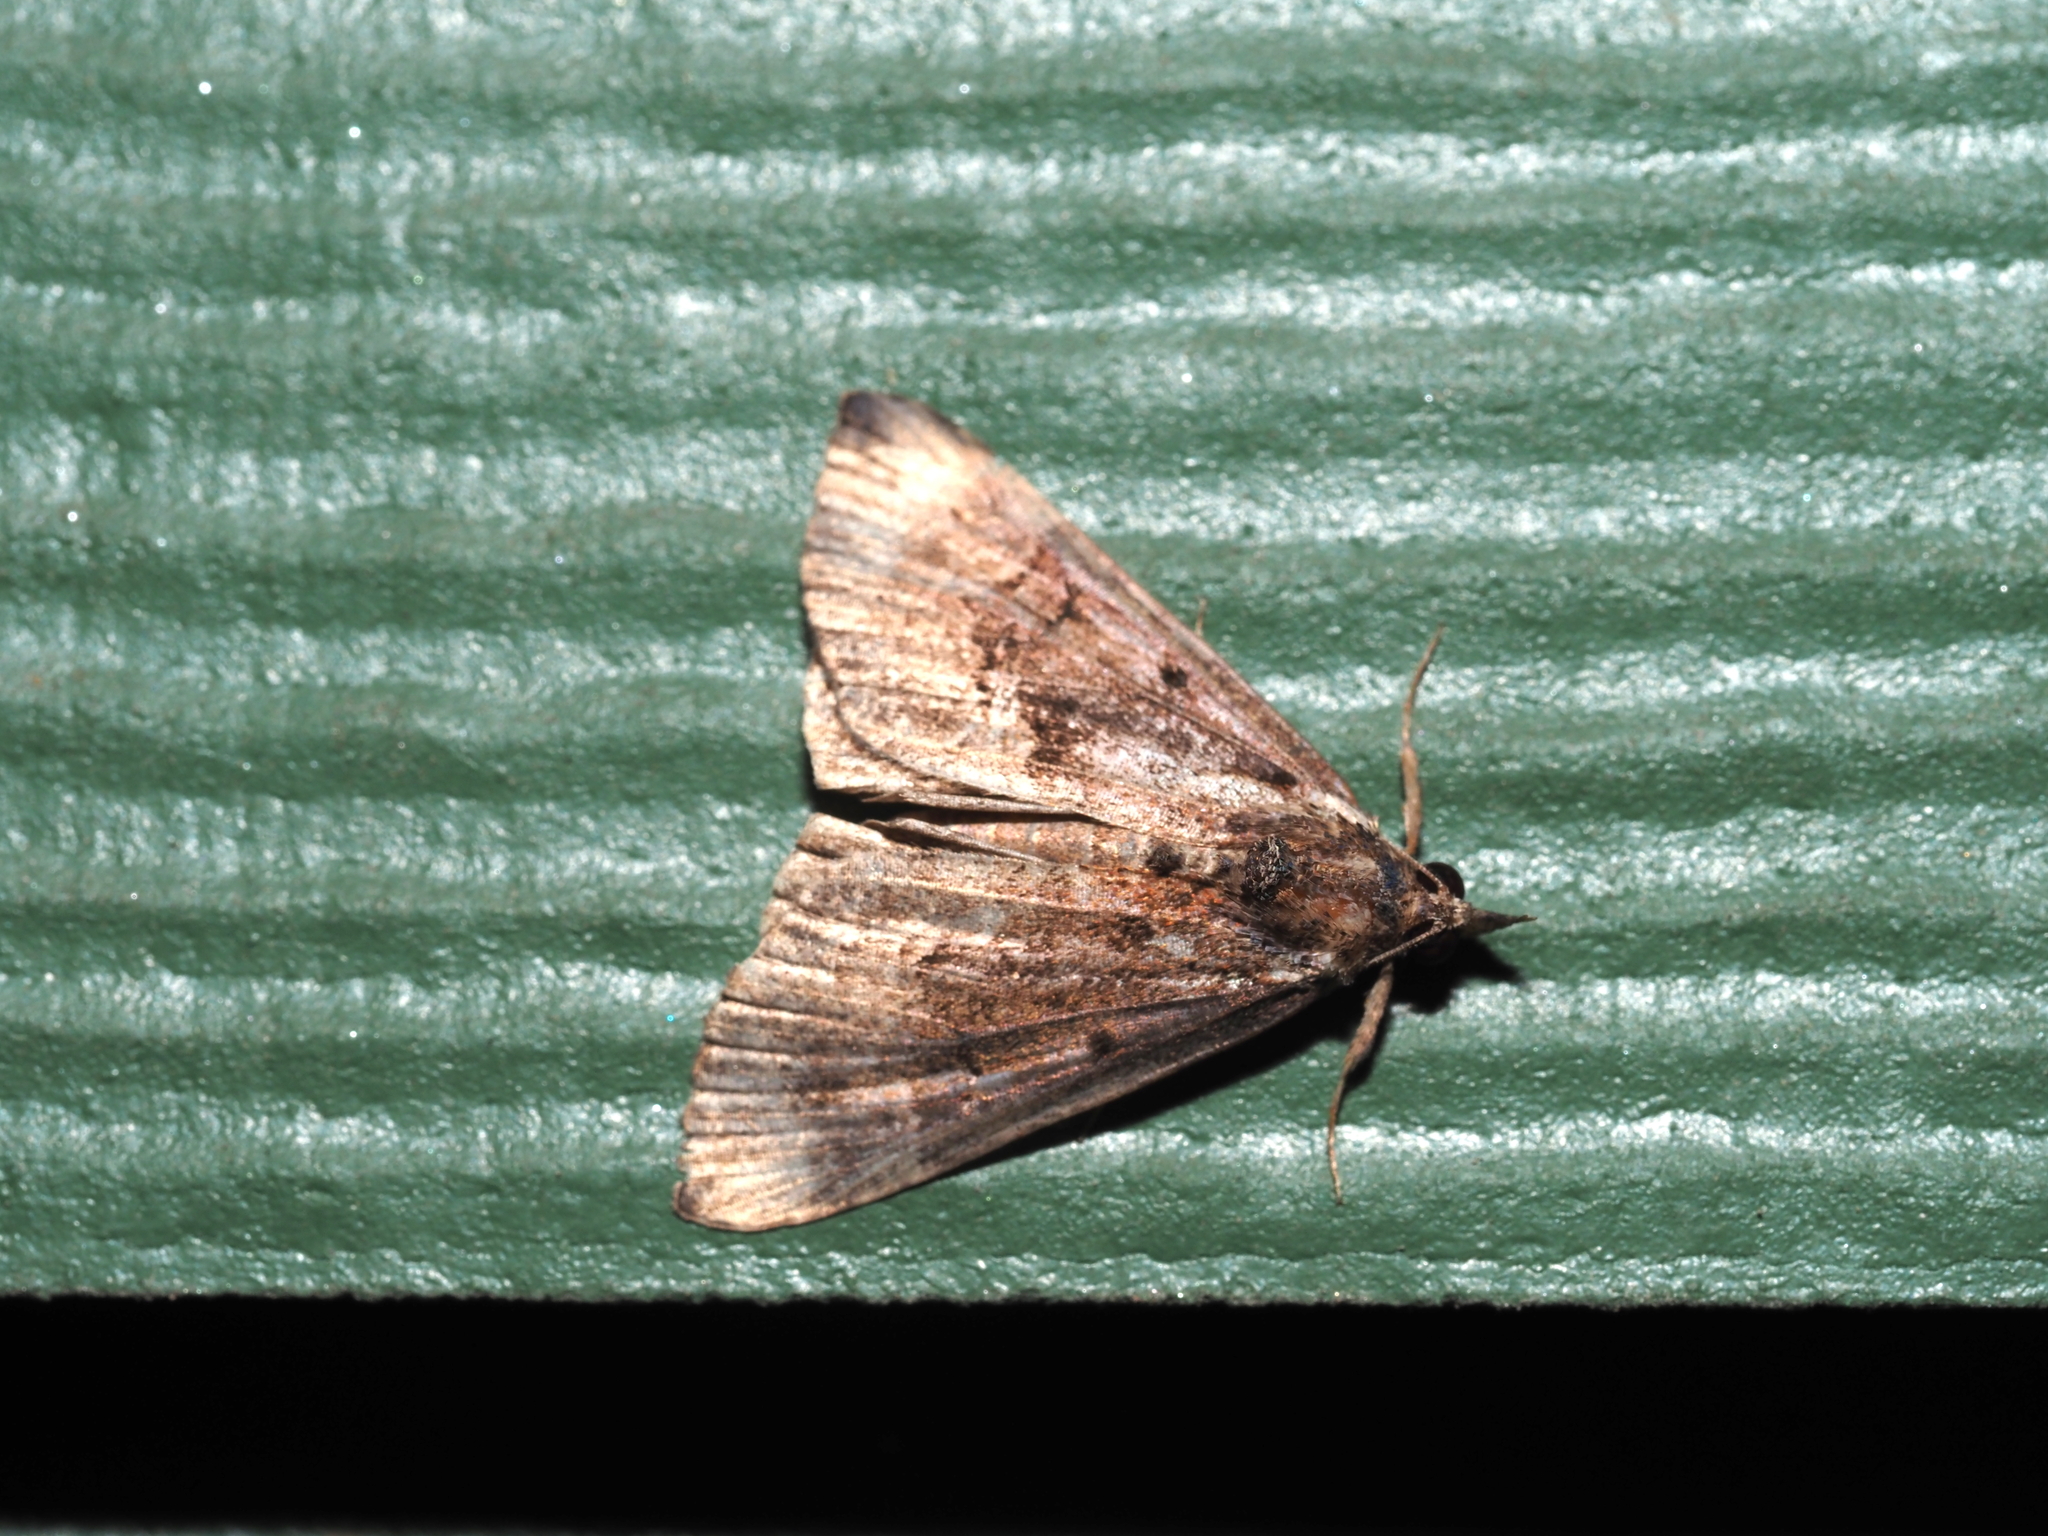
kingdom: Animalia
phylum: Arthropoda
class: Insecta
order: Lepidoptera
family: Erebidae
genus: Hypena
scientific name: Hypena madefactalis
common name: Gray-edged snout
